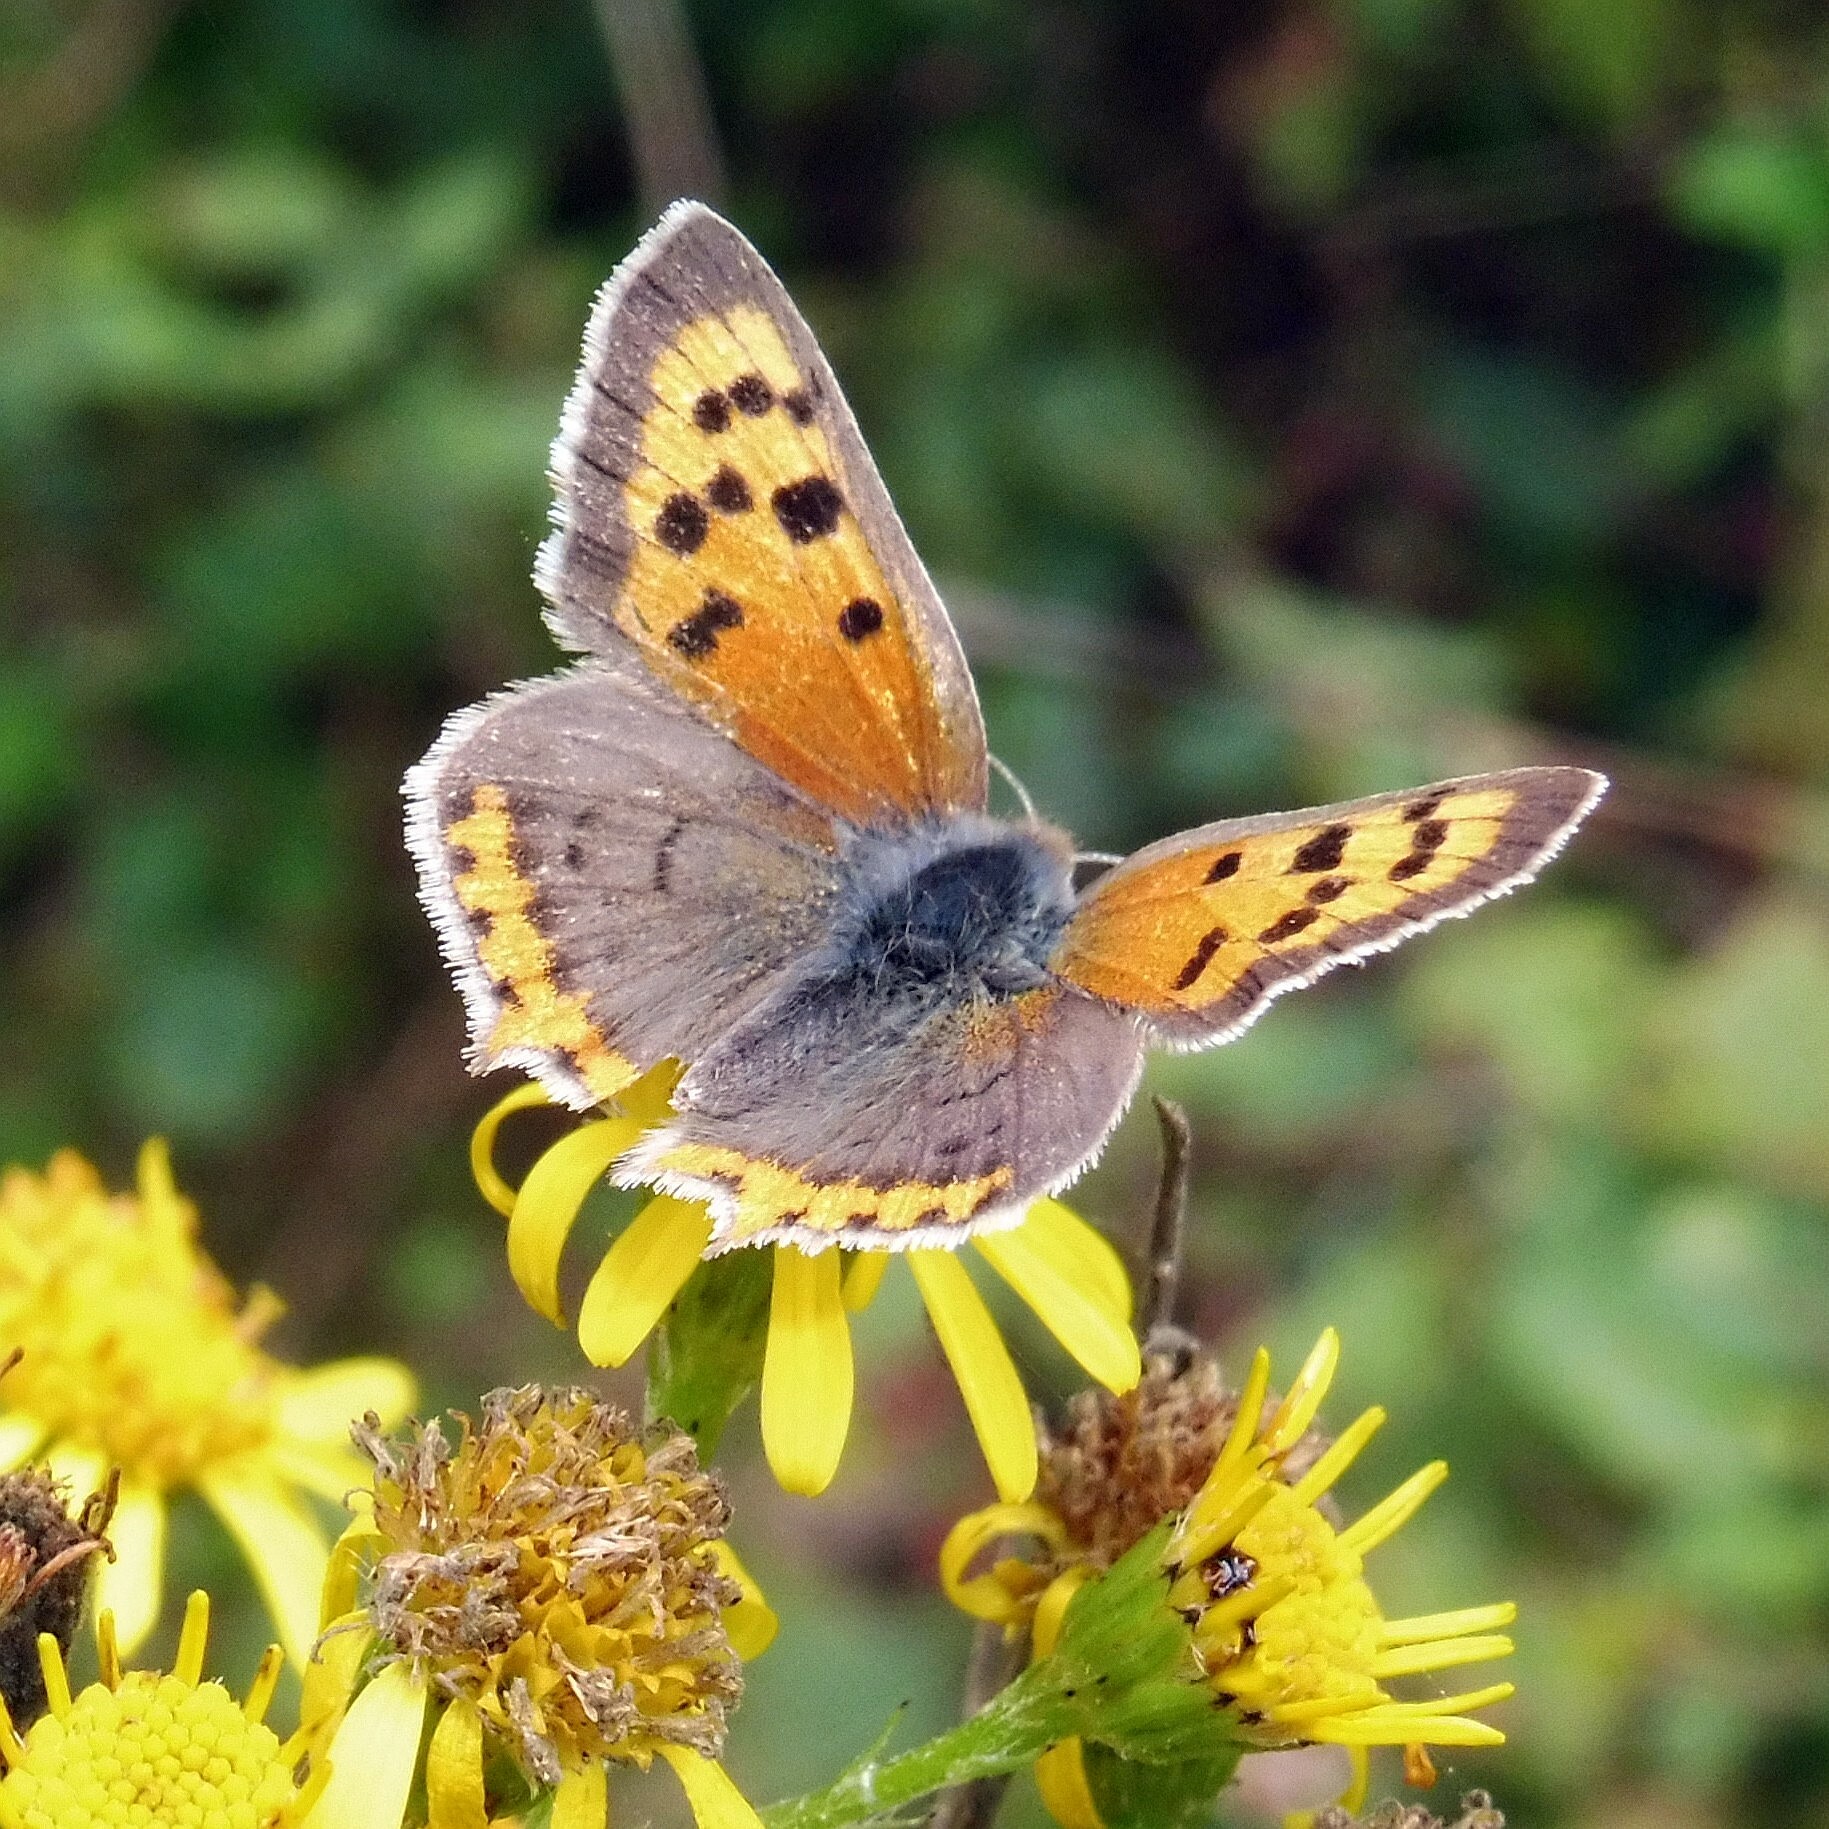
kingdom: Animalia
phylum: Arthropoda
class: Insecta
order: Lepidoptera
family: Lycaenidae
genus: Lycaena
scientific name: Lycaena phlaeas
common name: Small copper
